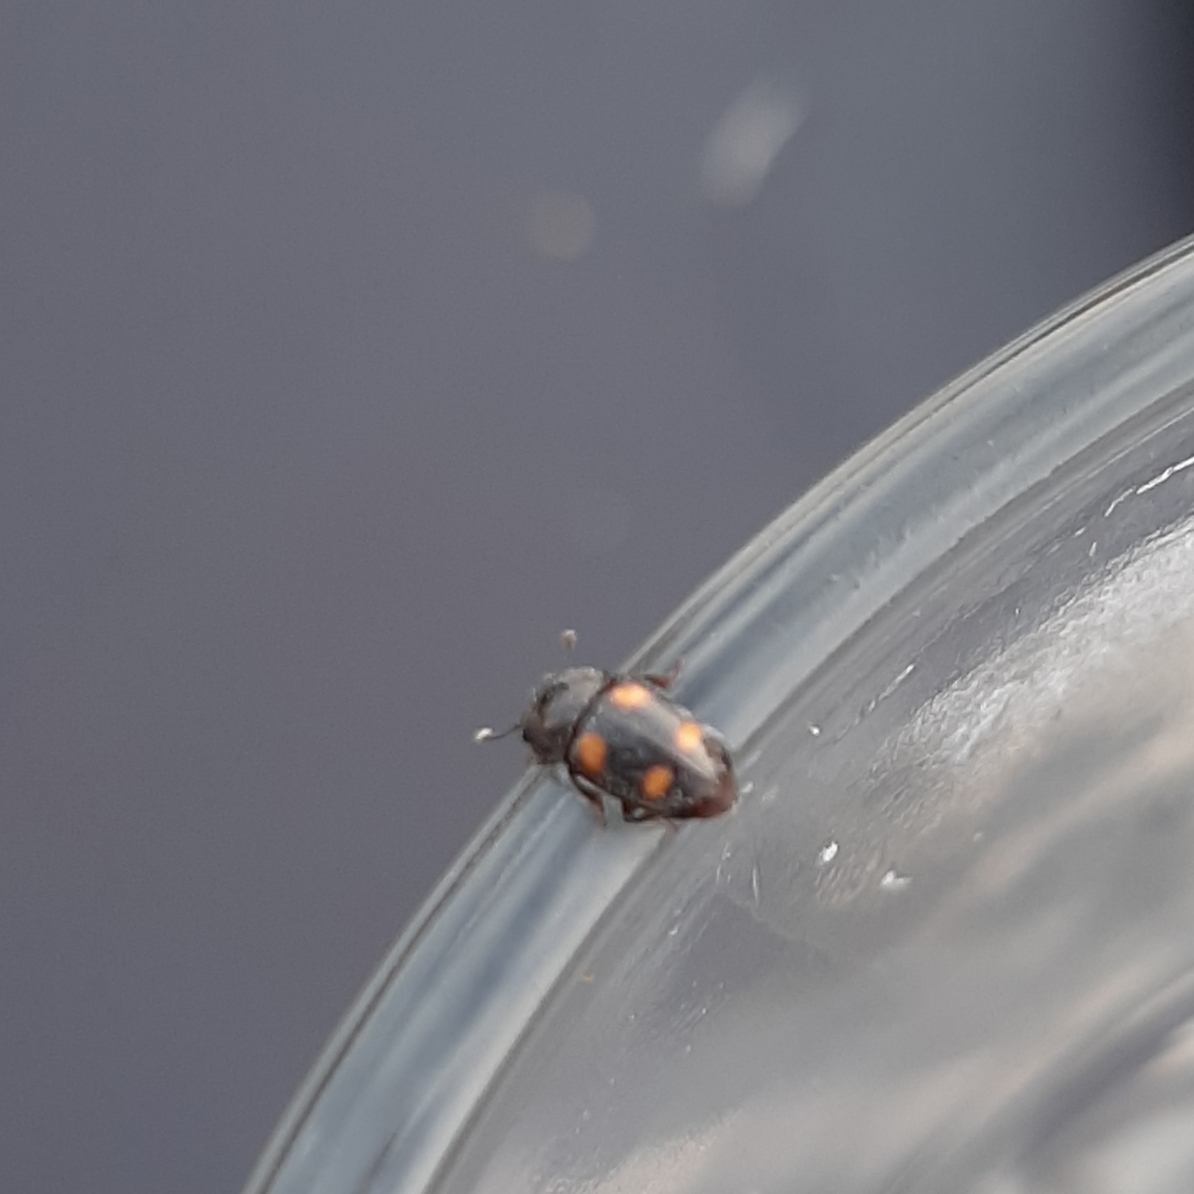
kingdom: Animalia
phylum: Arthropoda
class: Insecta
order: Coleoptera
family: Nitidulidae
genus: Glischrochilus
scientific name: Glischrochilus hortensis
